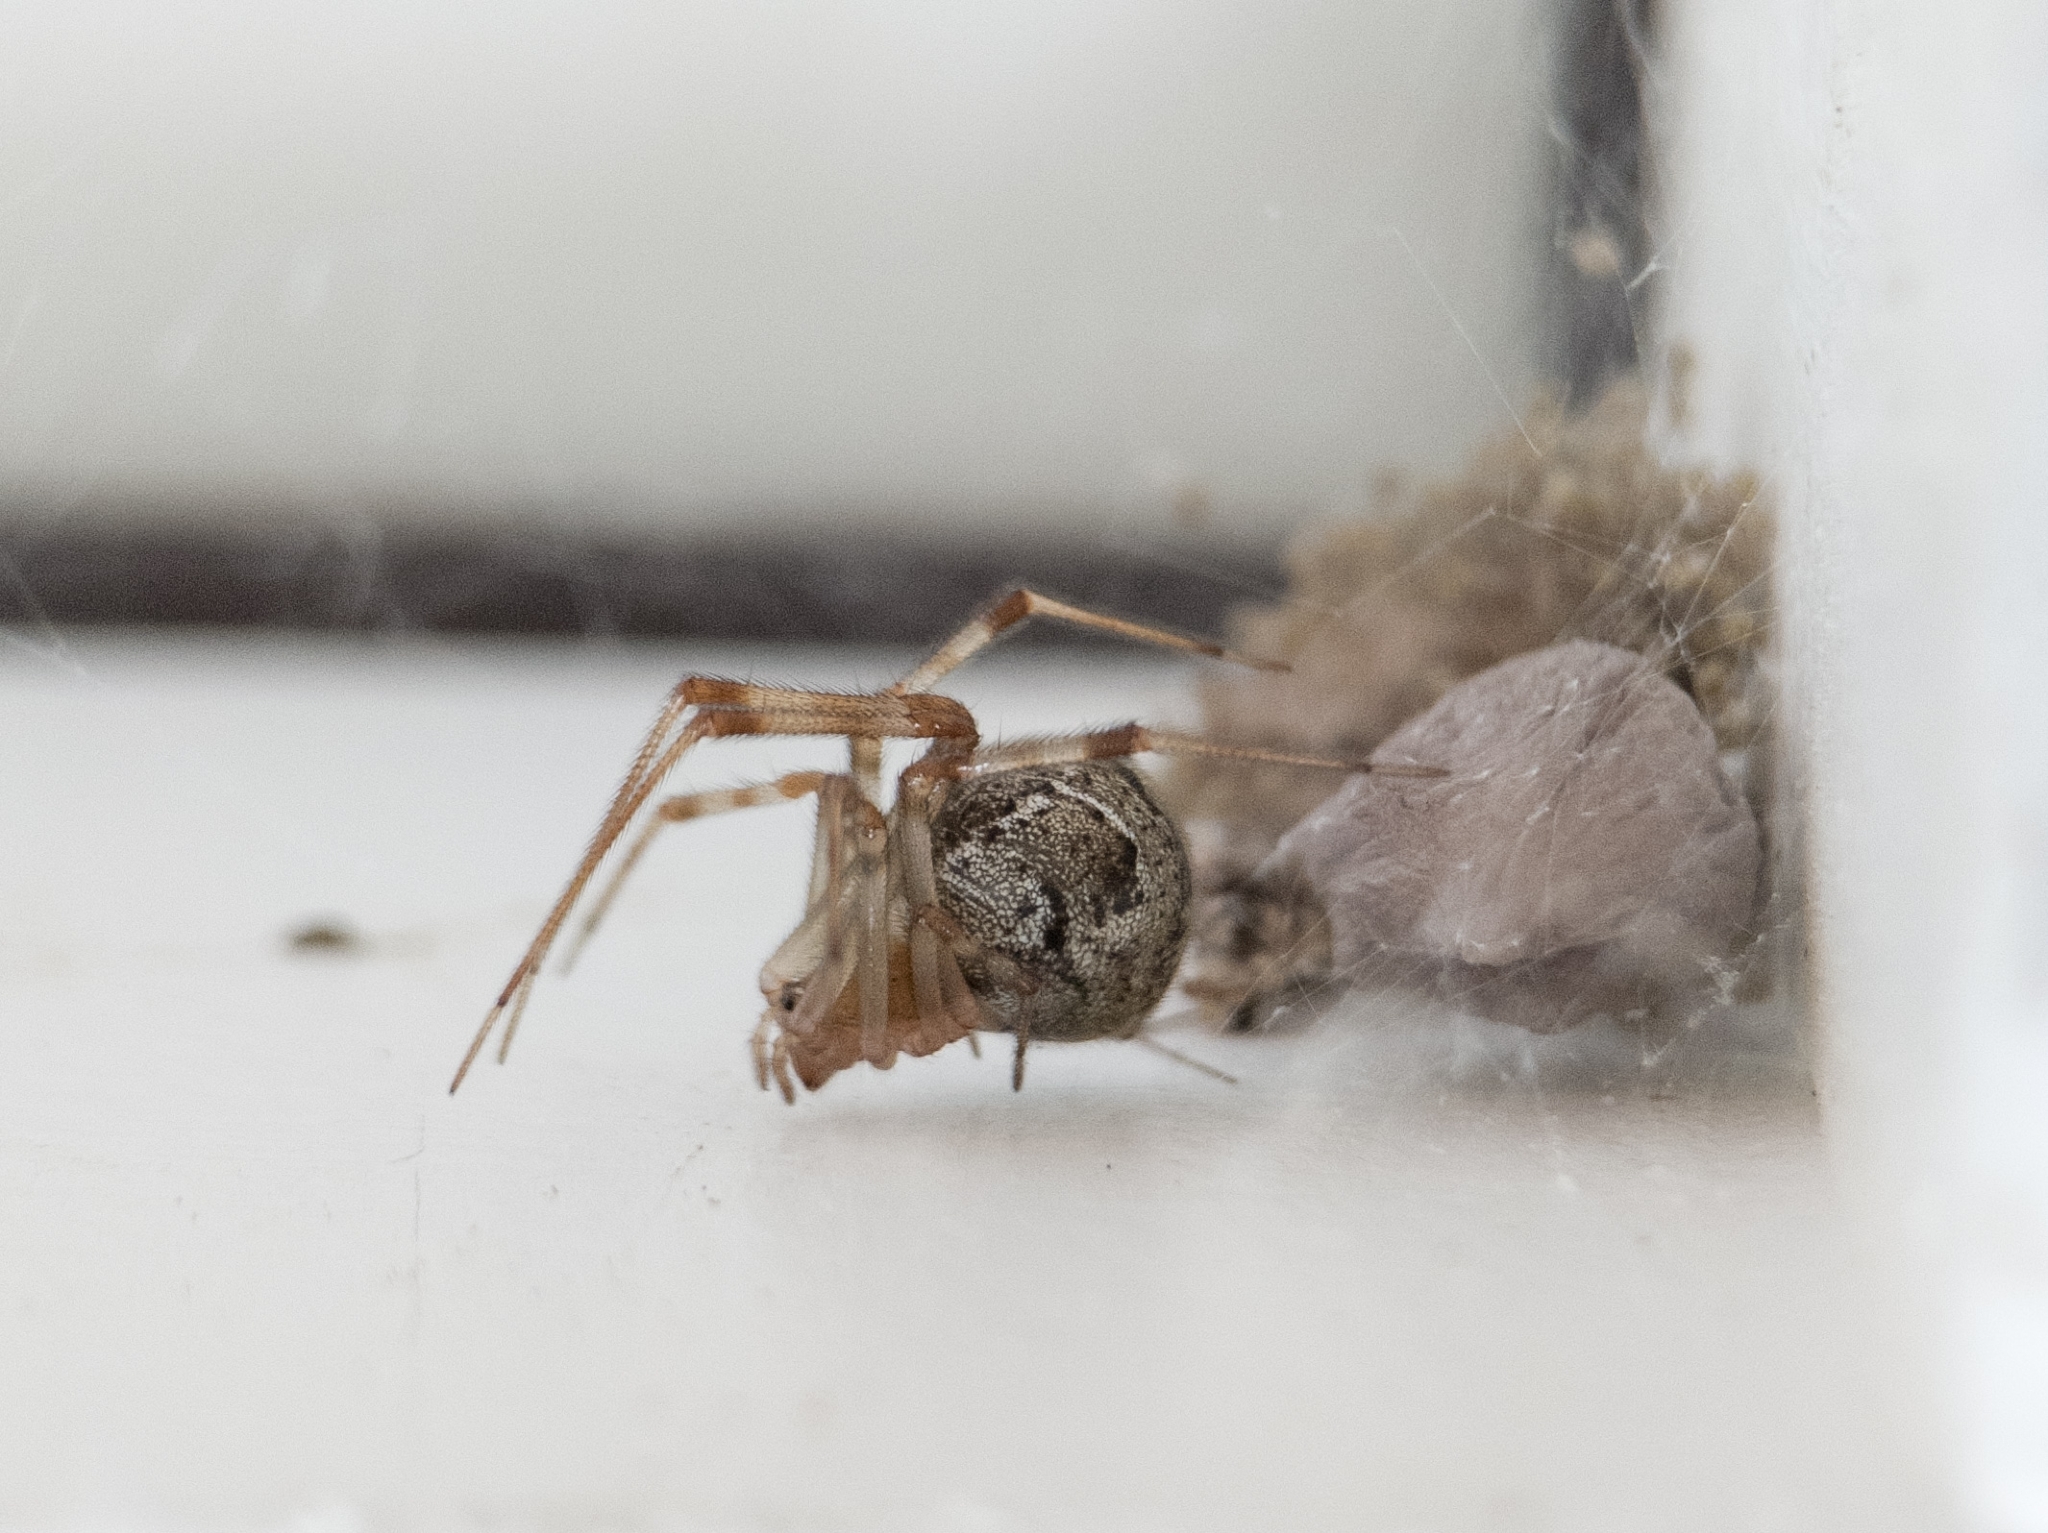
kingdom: Animalia
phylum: Arthropoda
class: Arachnida
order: Araneae
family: Theridiidae
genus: Parasteatoda
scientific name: Parasteatoda tepidariorum
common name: Common house spider
